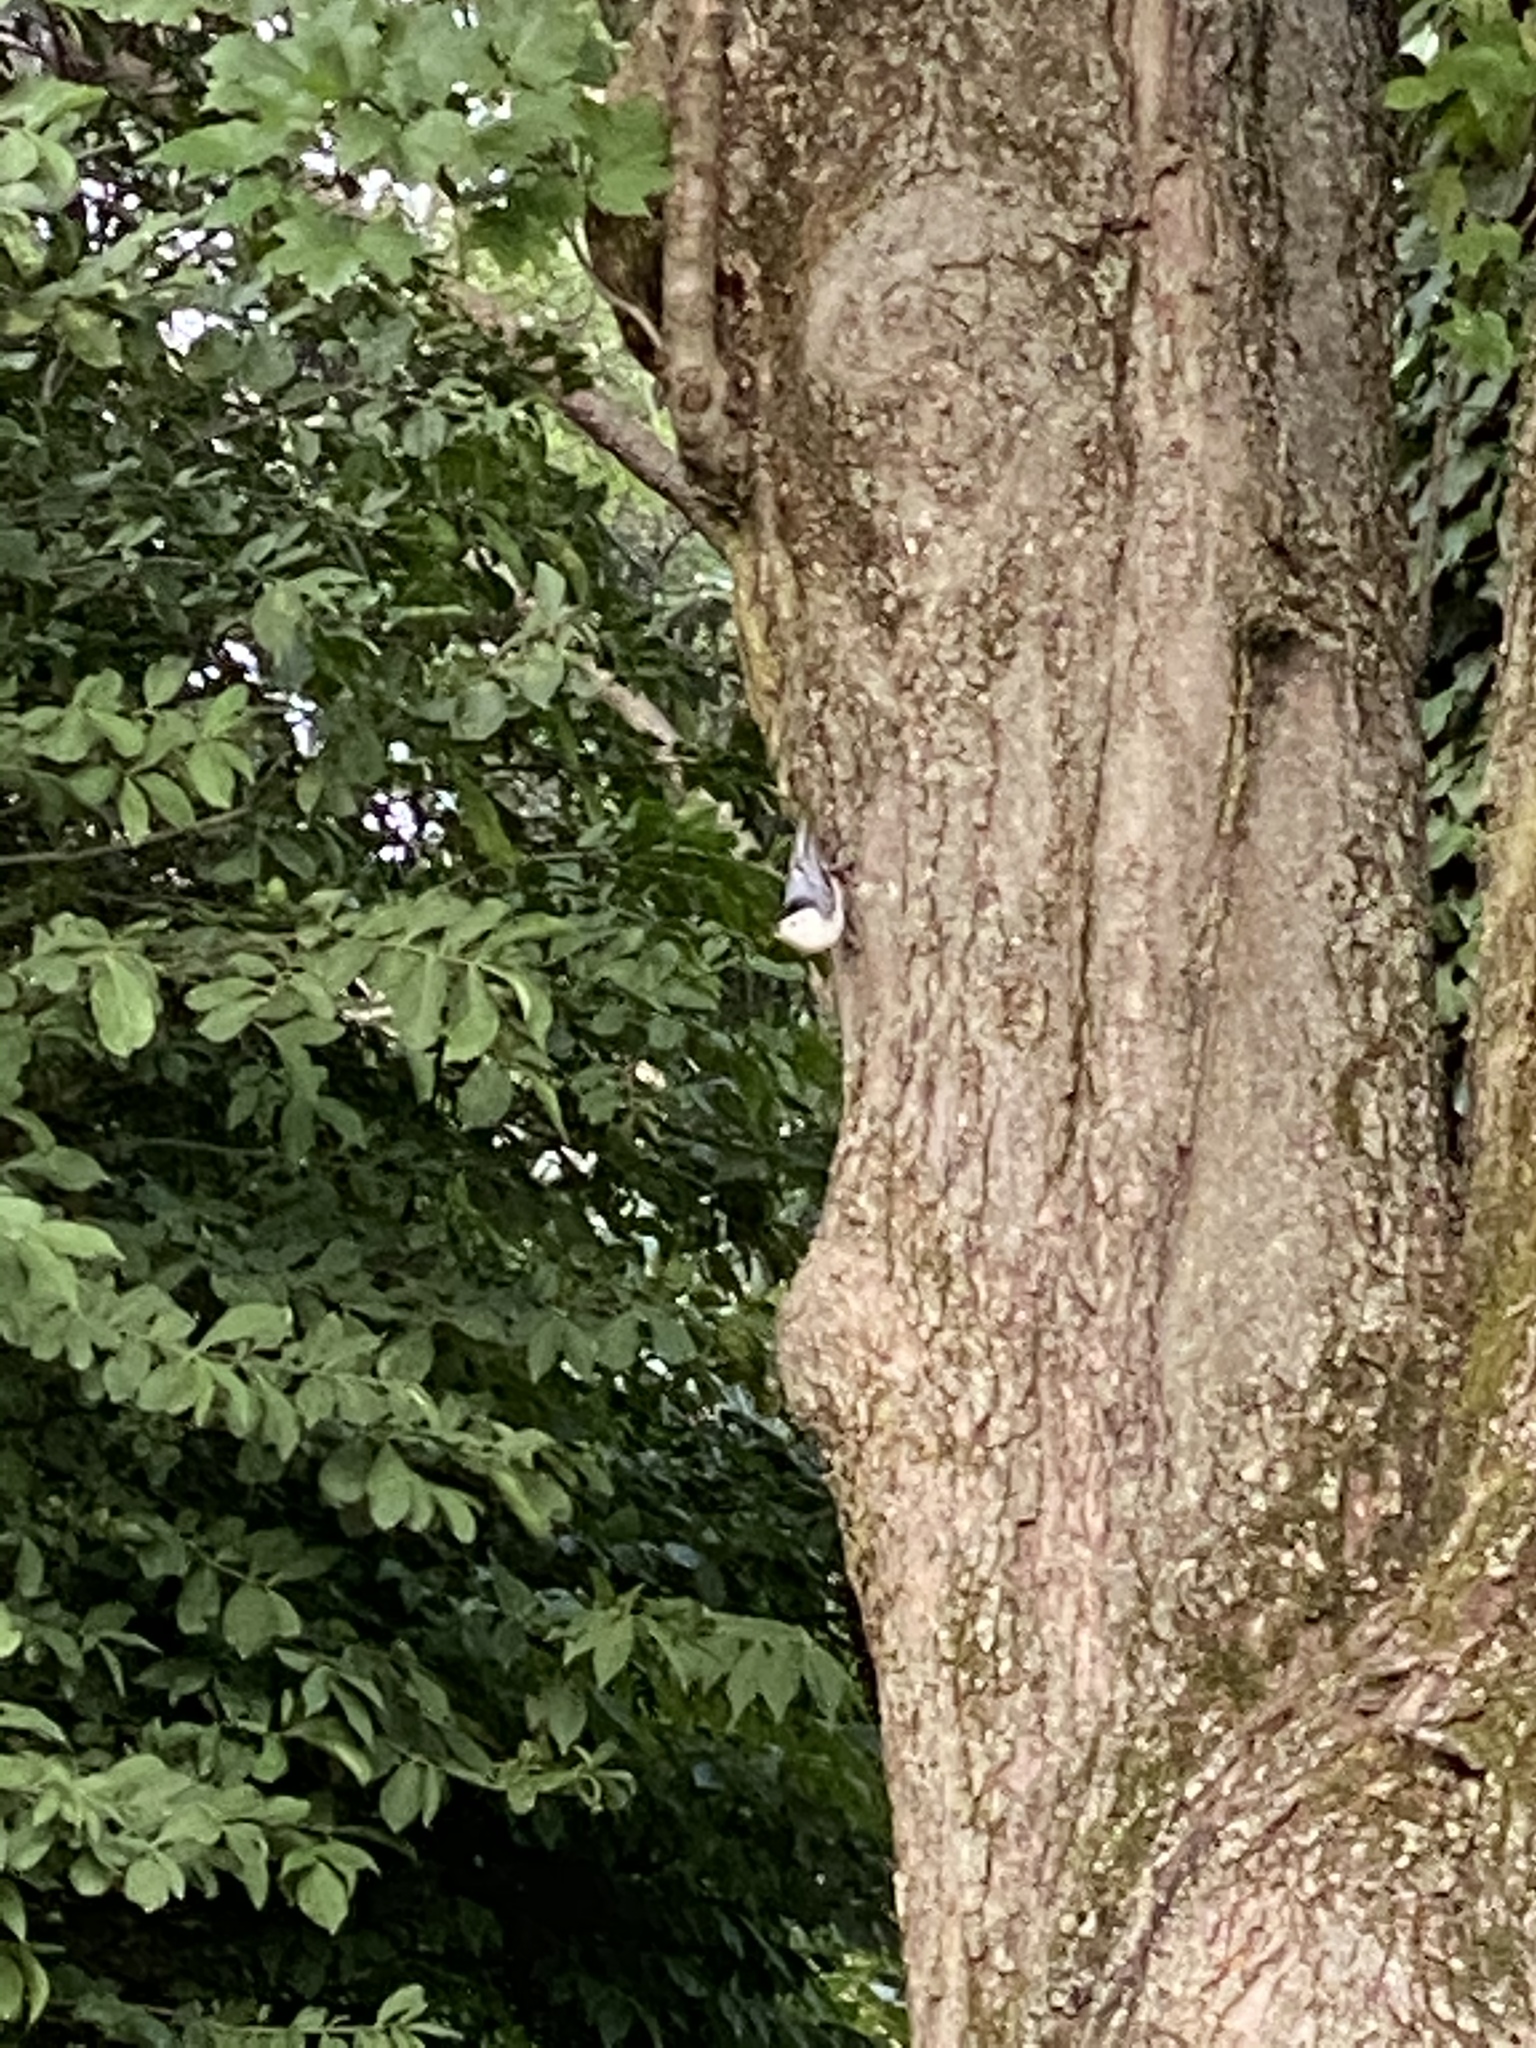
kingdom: Animalia
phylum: Chordata
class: Aves
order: Passeriformes
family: Sittidae
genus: Sitta
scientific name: Sitta carolinensis
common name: White-breasted nuthatch
